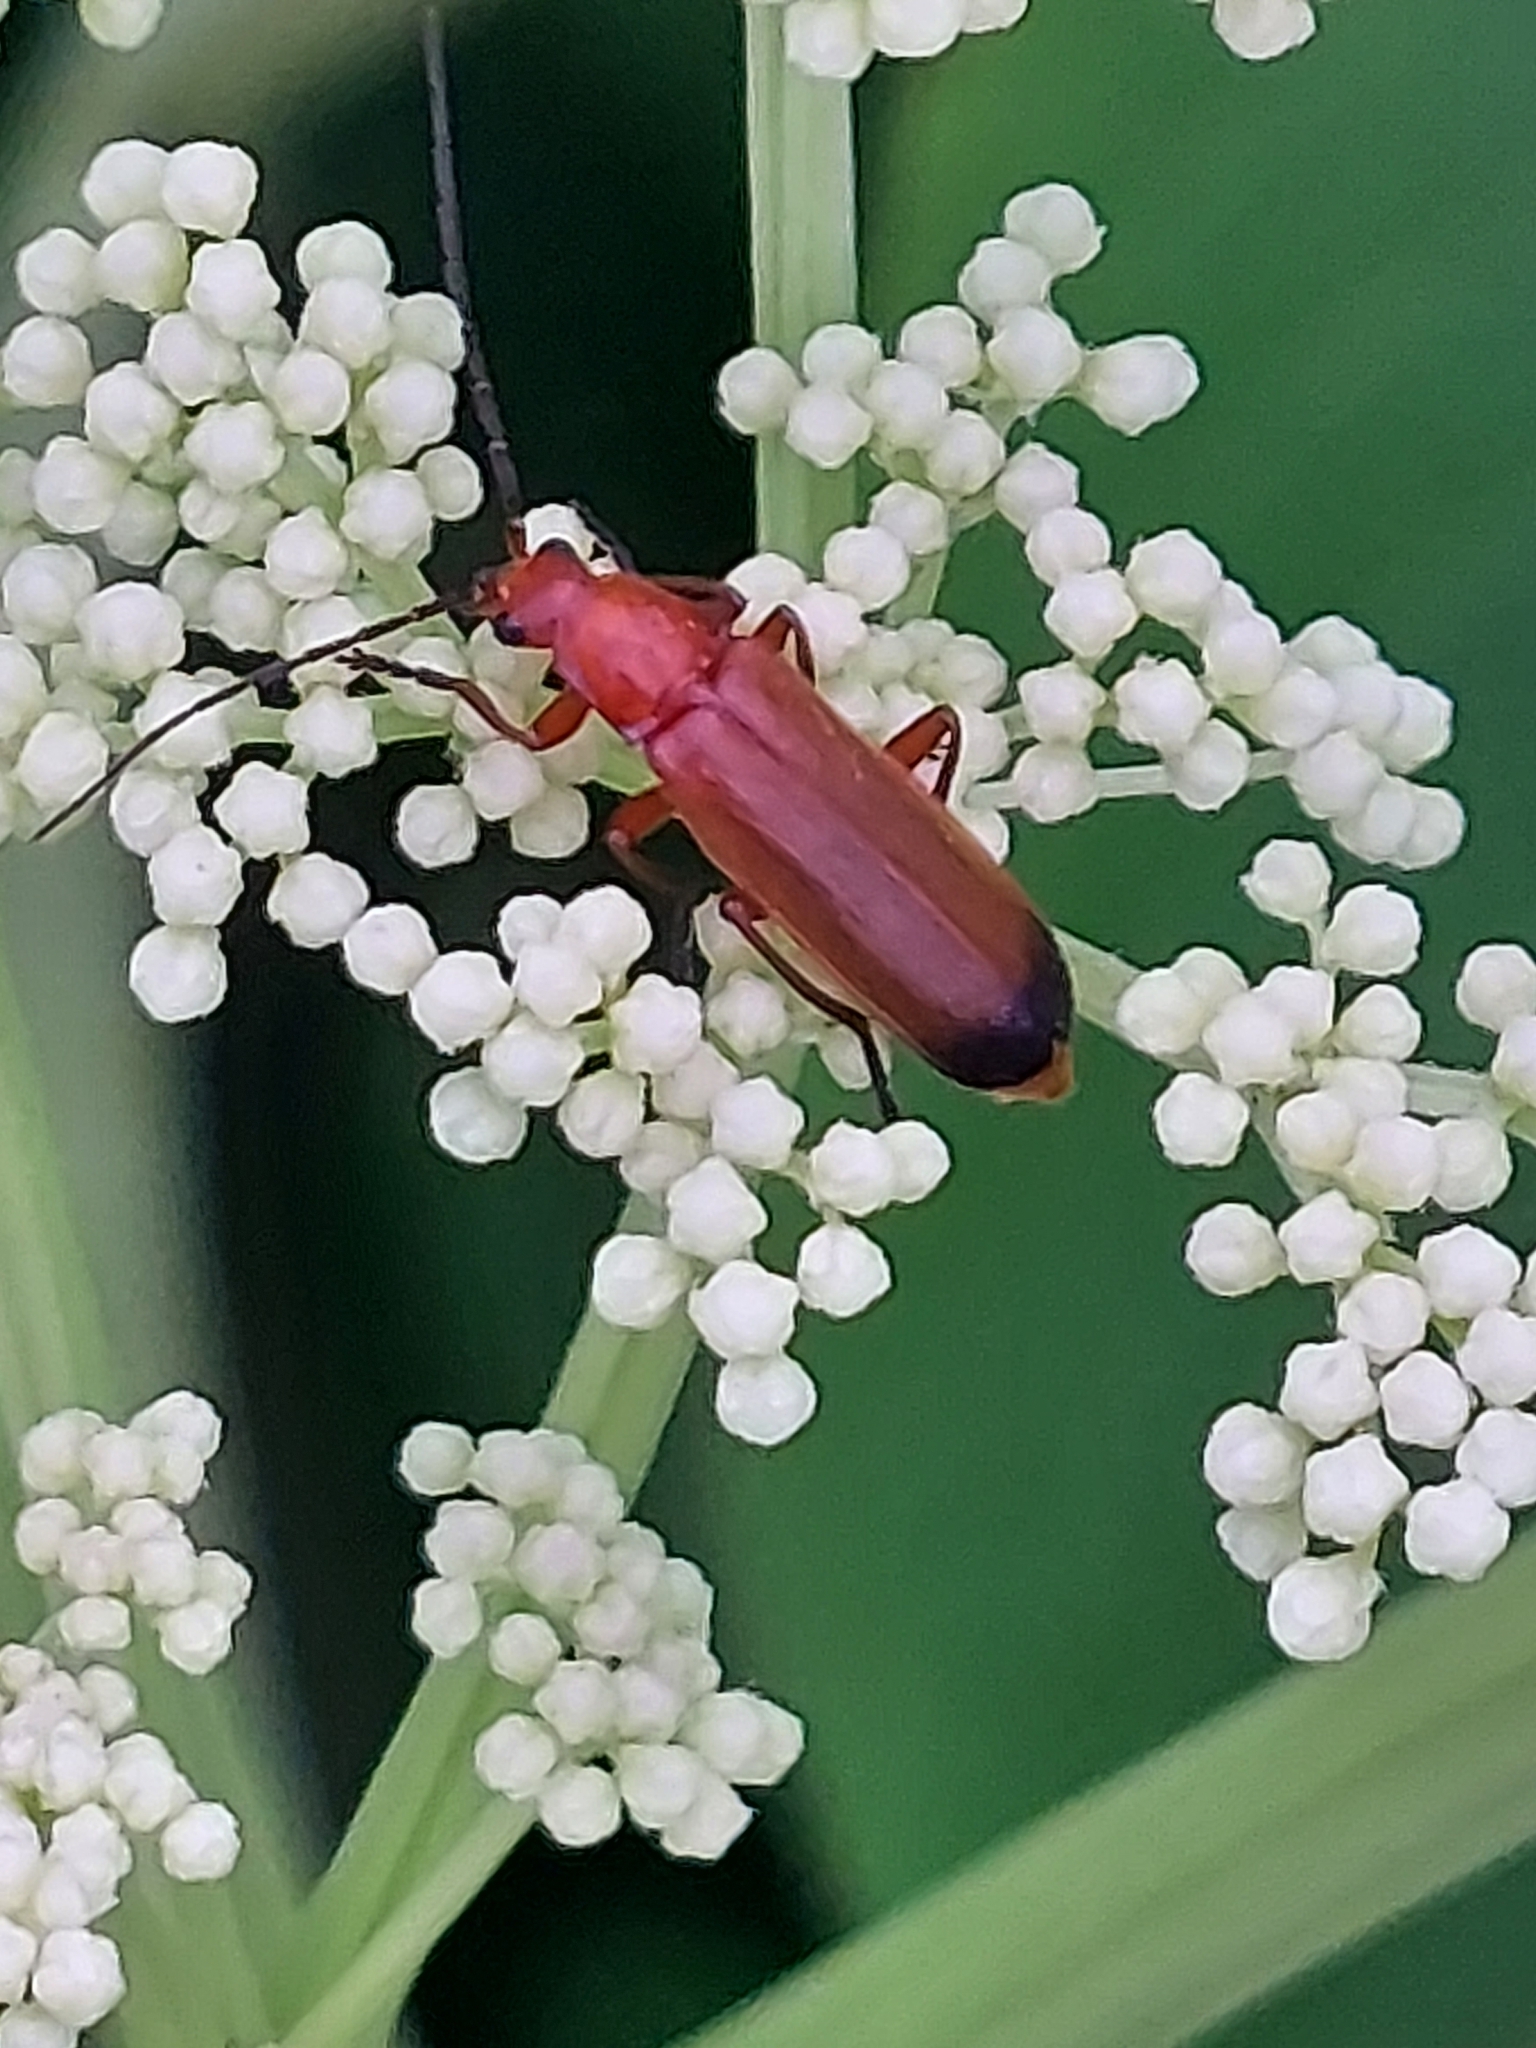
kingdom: Animalia
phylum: Arthropoda
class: Insecta
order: Coleoptera
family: Cantharidae
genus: Rhagonycha
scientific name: Rhagonycha fulva
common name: Common red soldier beetle
